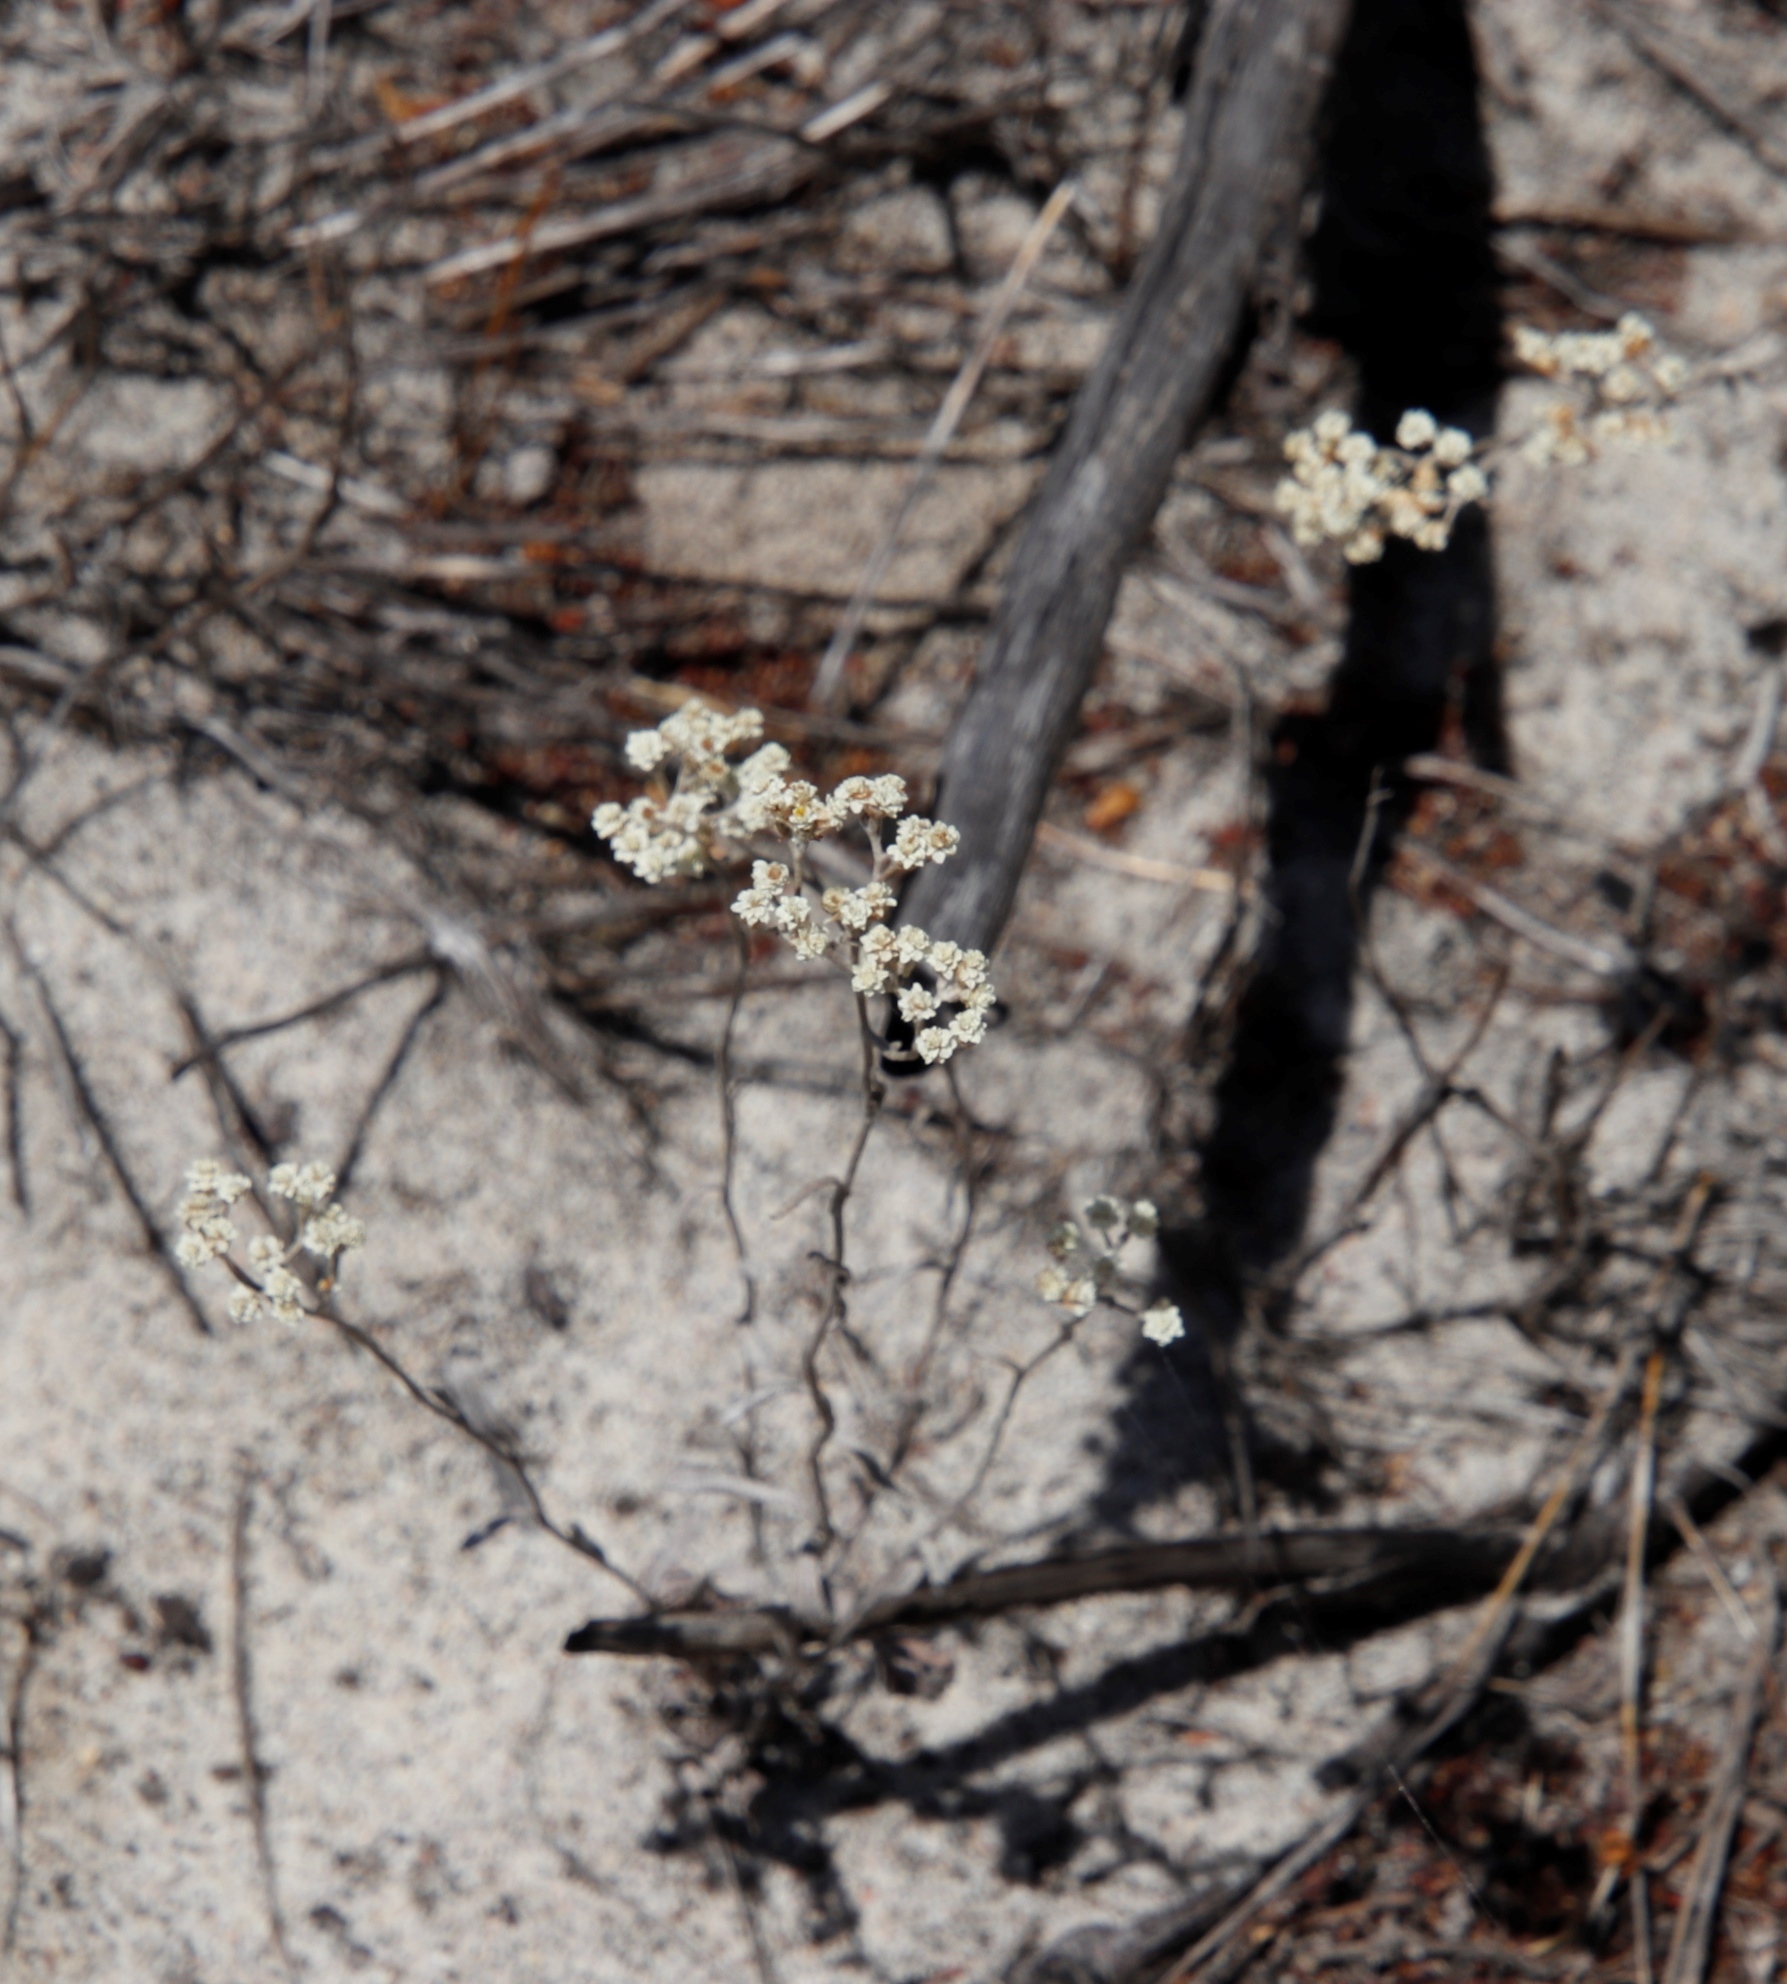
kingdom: Plantae
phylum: Tracheophyta
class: Magnoliopsida
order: Asterales
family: Asteraceae
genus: Helichrysum
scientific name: Helichrysum indicum
